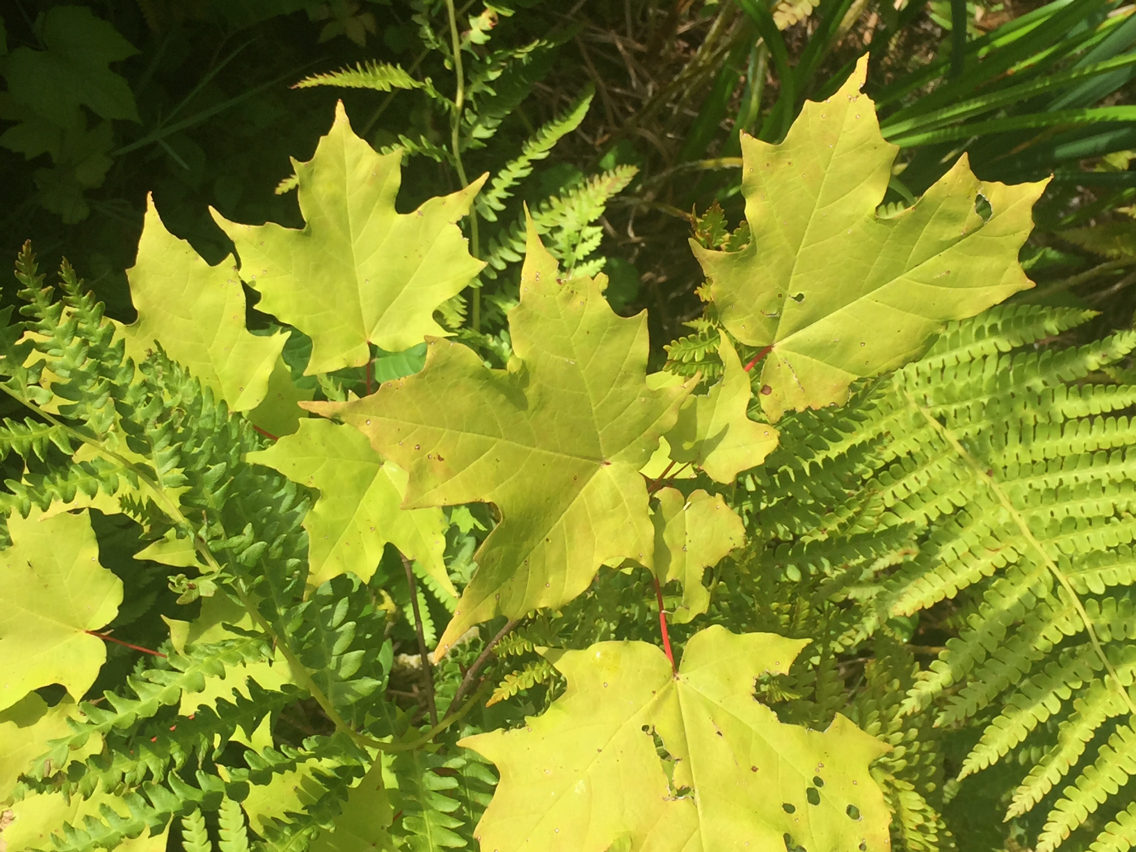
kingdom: Plantae
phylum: Tracheophyta
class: Magnoliopsida
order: Sapindales
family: Sapindaceae
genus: Acer
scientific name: Acer saccharum
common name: Sugar maple
